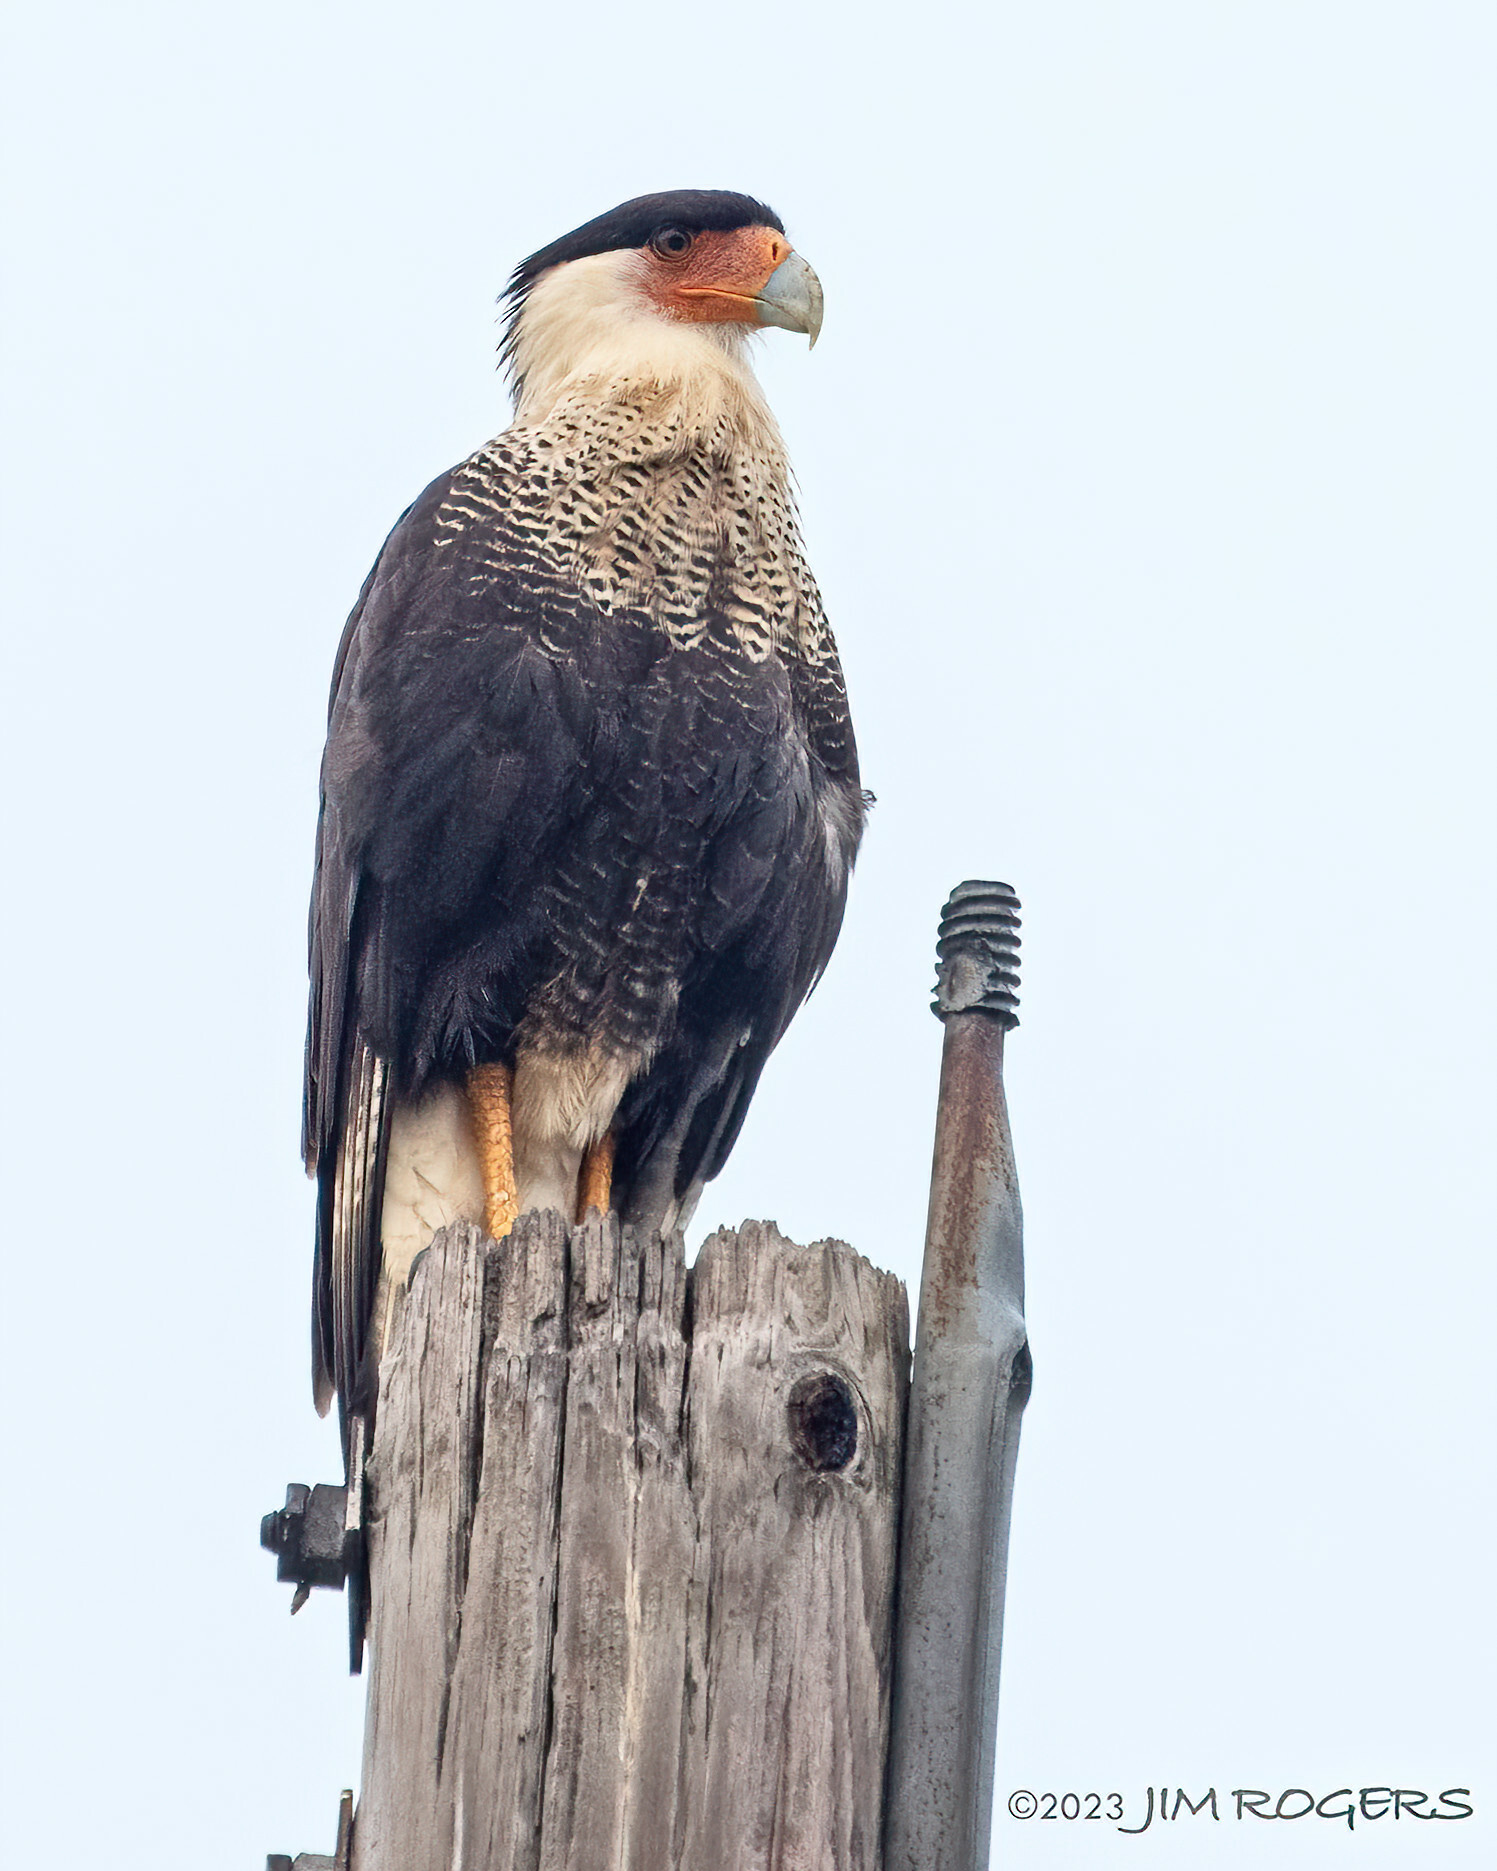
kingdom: Animalia
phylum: Chordata
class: Aves
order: Falconiformes
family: Falconidae
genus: Caracara
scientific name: Caracara plancus
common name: Southern caracara
